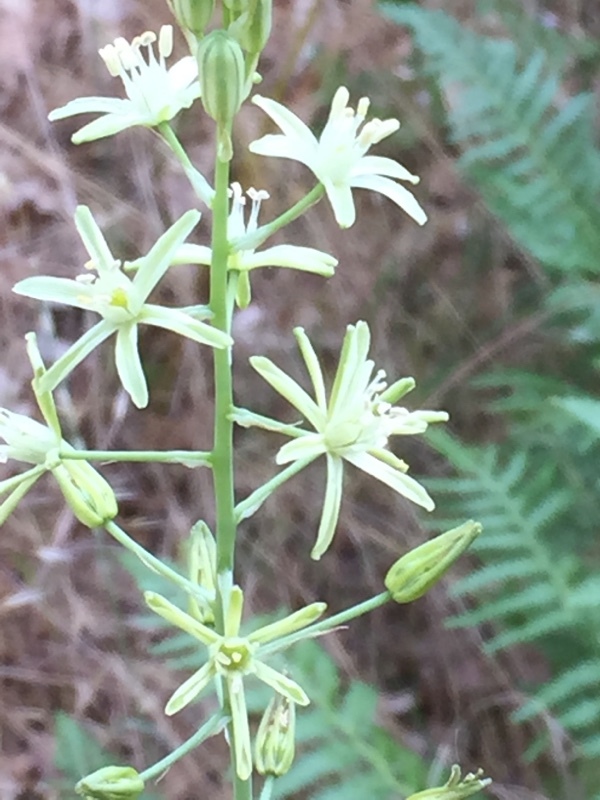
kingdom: Plantae
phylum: Tracheophyta
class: Liliopsida
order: Asparagales
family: Asparagaceae
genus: Ornithogalum
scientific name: Ornithogalum pyrenaicum
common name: Spiked star-of-bethlehem
